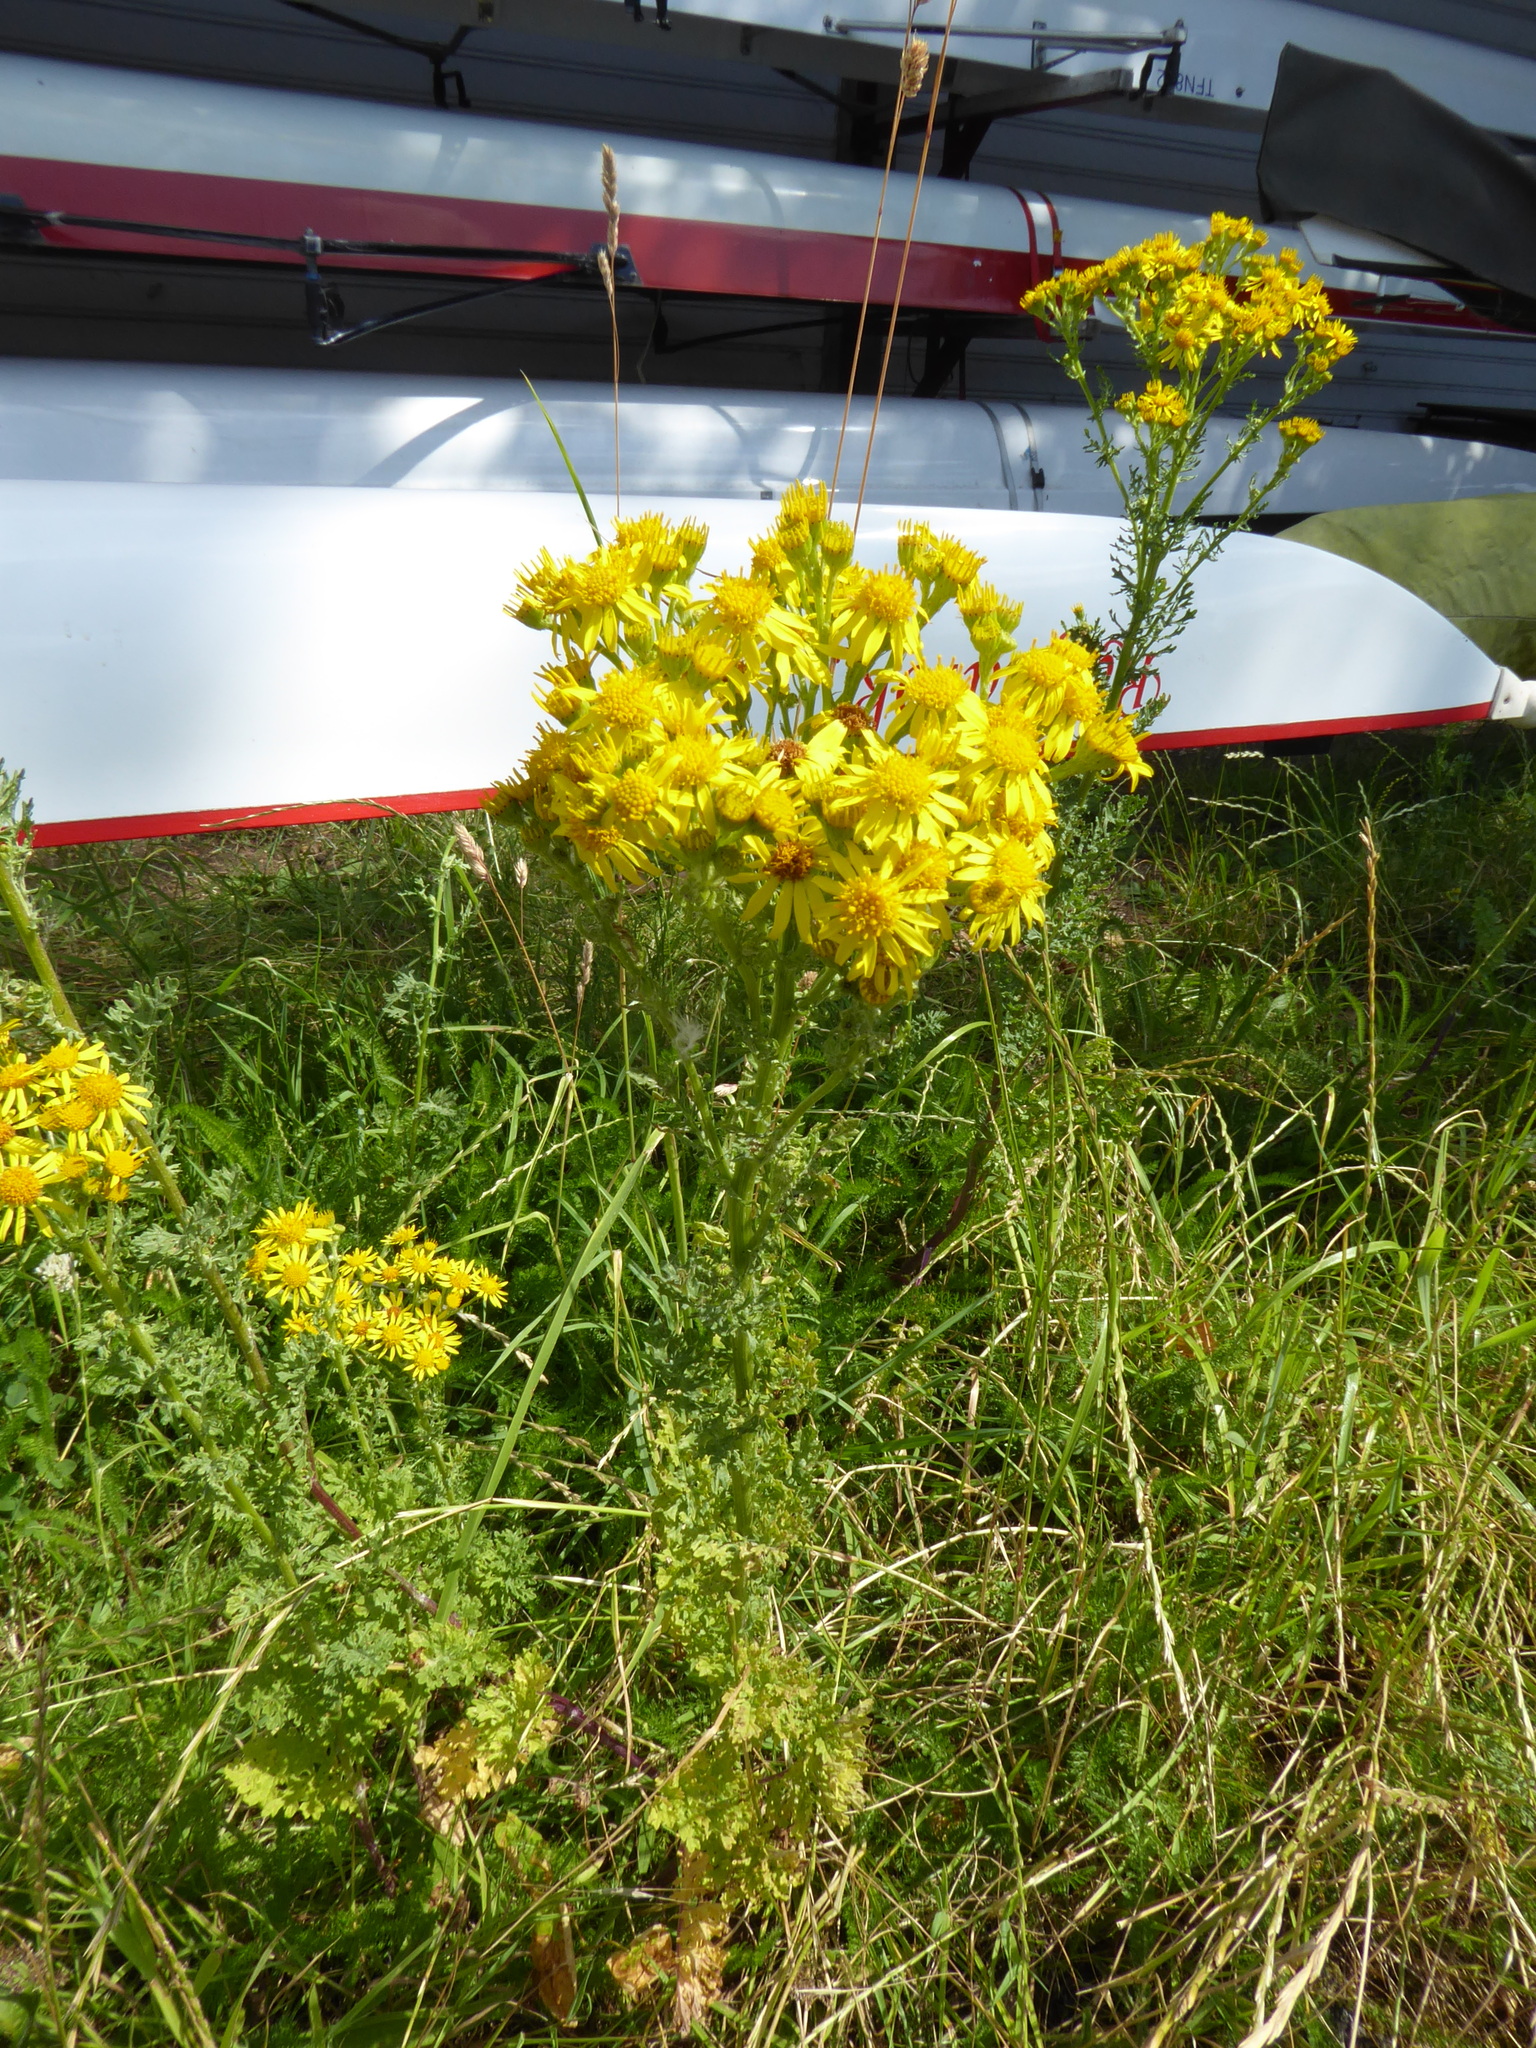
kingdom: Plantae
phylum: Tracheophyta
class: Magnoliopsida
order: Asterales
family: Asteraceae
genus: Jacobaea
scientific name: Jacobaea vulgaris
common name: Stinking willie
